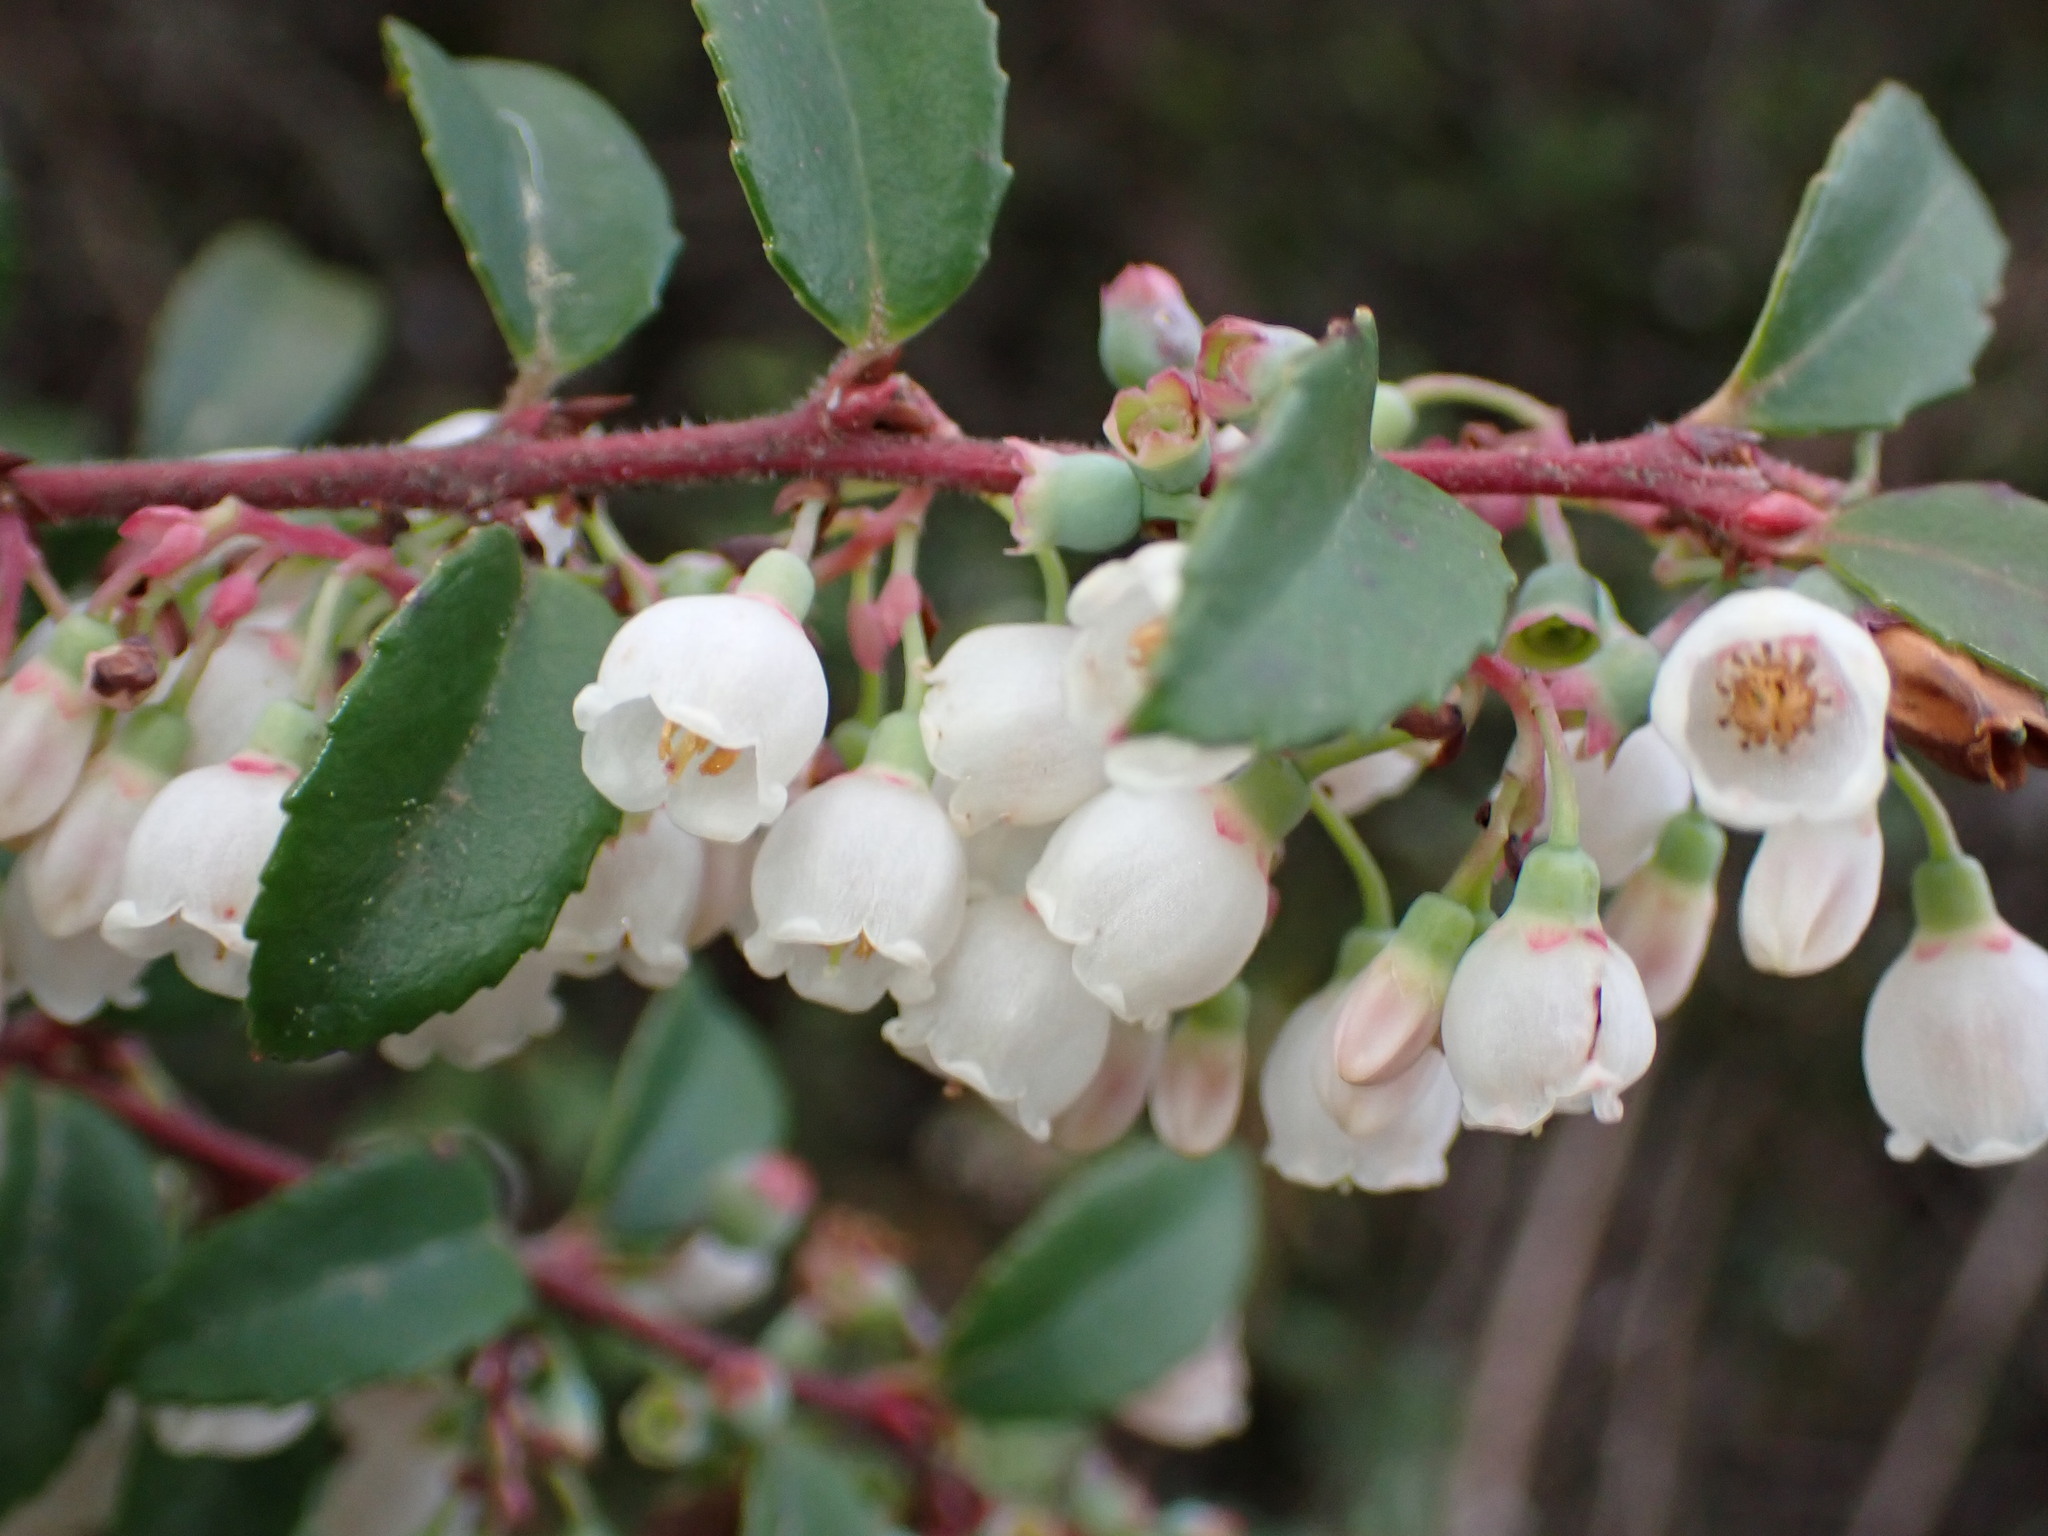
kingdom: Plantae
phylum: Tracheophyta
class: Magnoliopsida
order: Ericales
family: Ericaceae
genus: Vaccinium
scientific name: Vaccinium ovatum
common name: California-huckleberry
